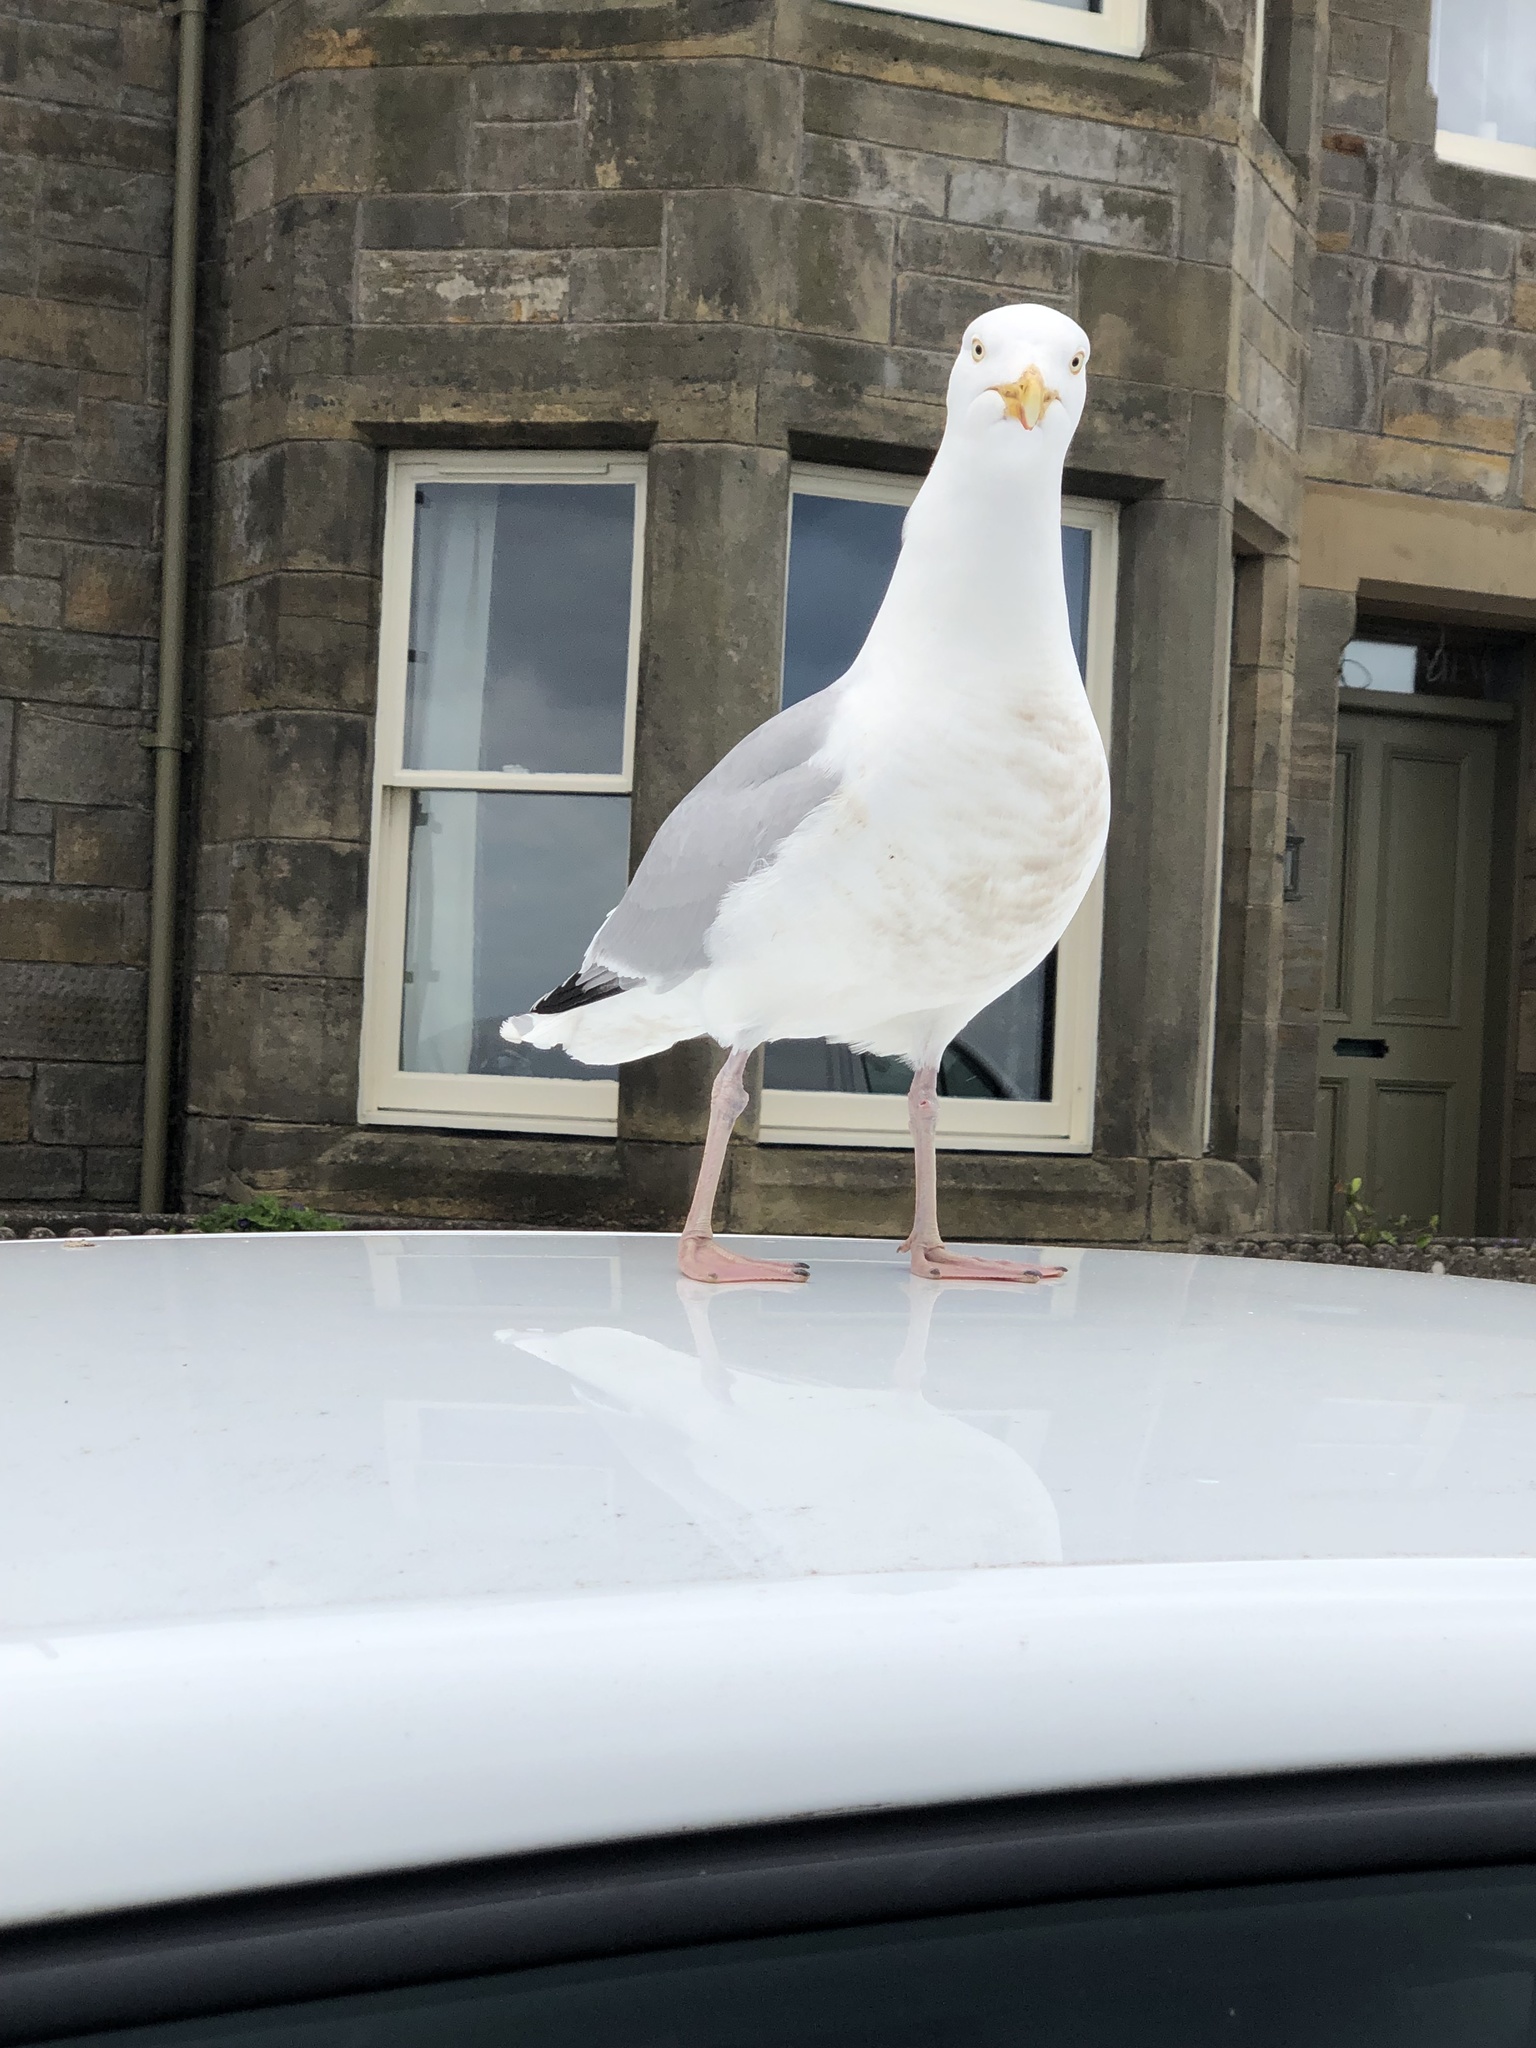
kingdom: Animalia
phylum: Chordata
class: Aves
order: Charadriiformes
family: Laridae
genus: Larus
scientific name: Larus argentatus
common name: Herring gull
